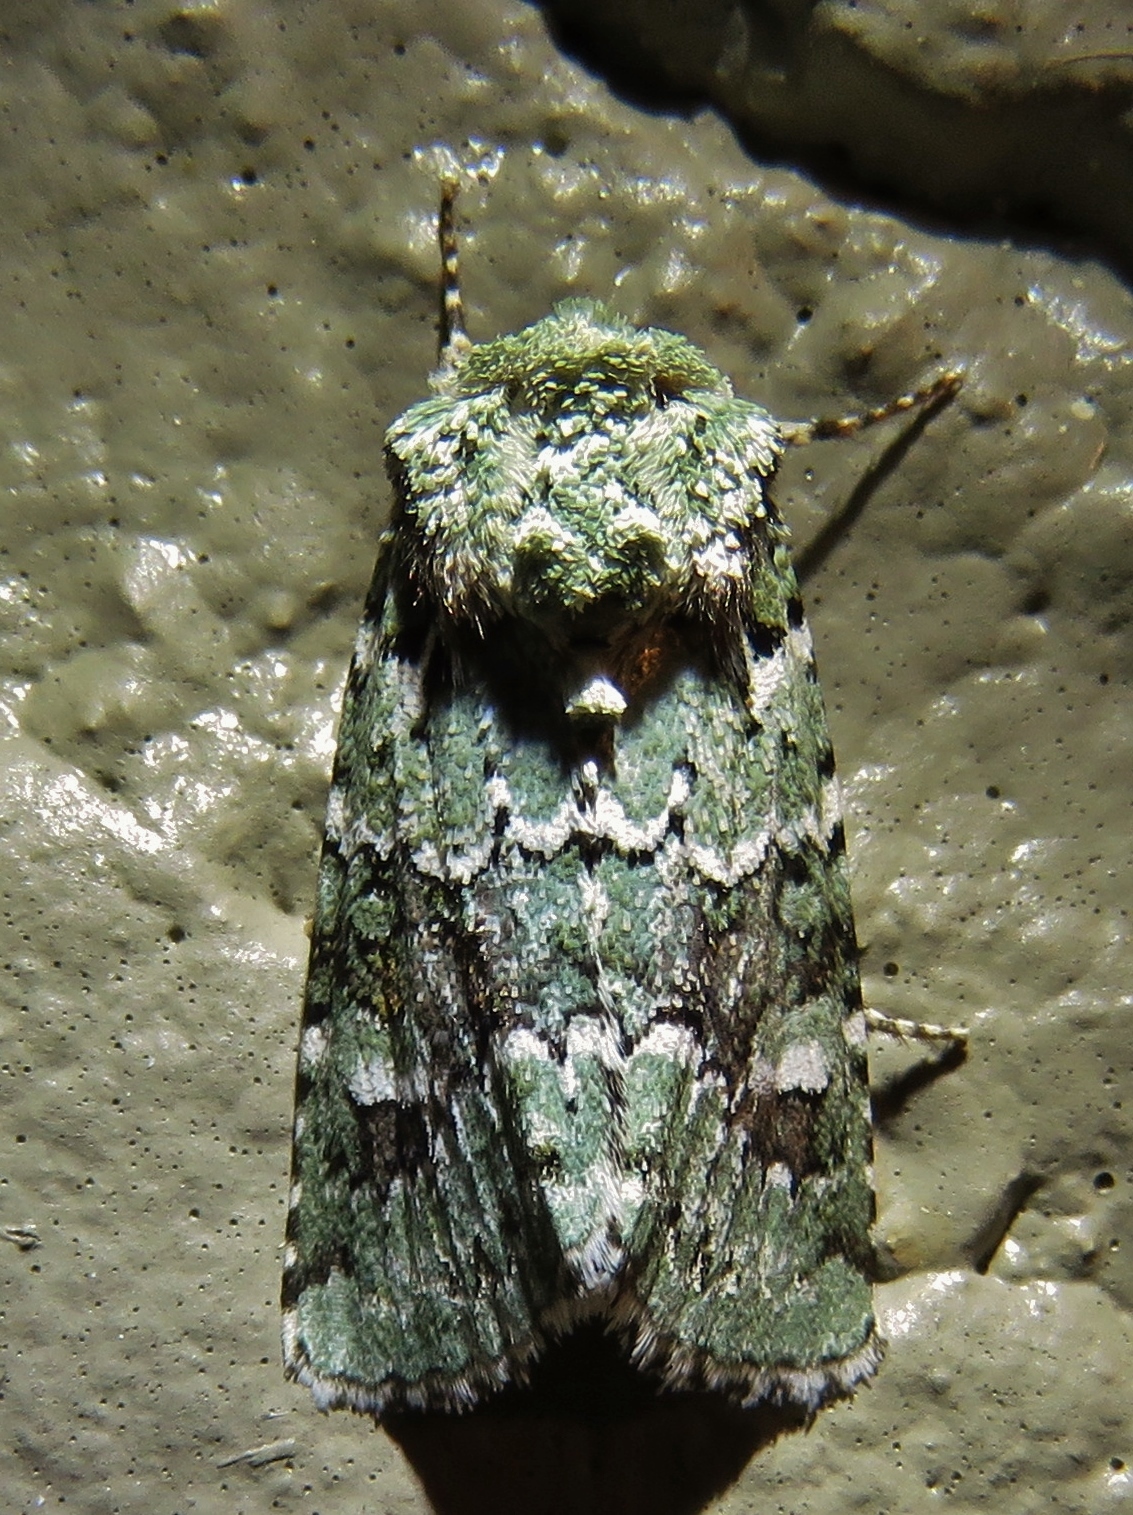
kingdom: Animalia
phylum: Arthropoda
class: Insecta
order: Lepidoptera
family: Noctuidae
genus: Lacinipolia
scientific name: Lacinipolia laudabilis
